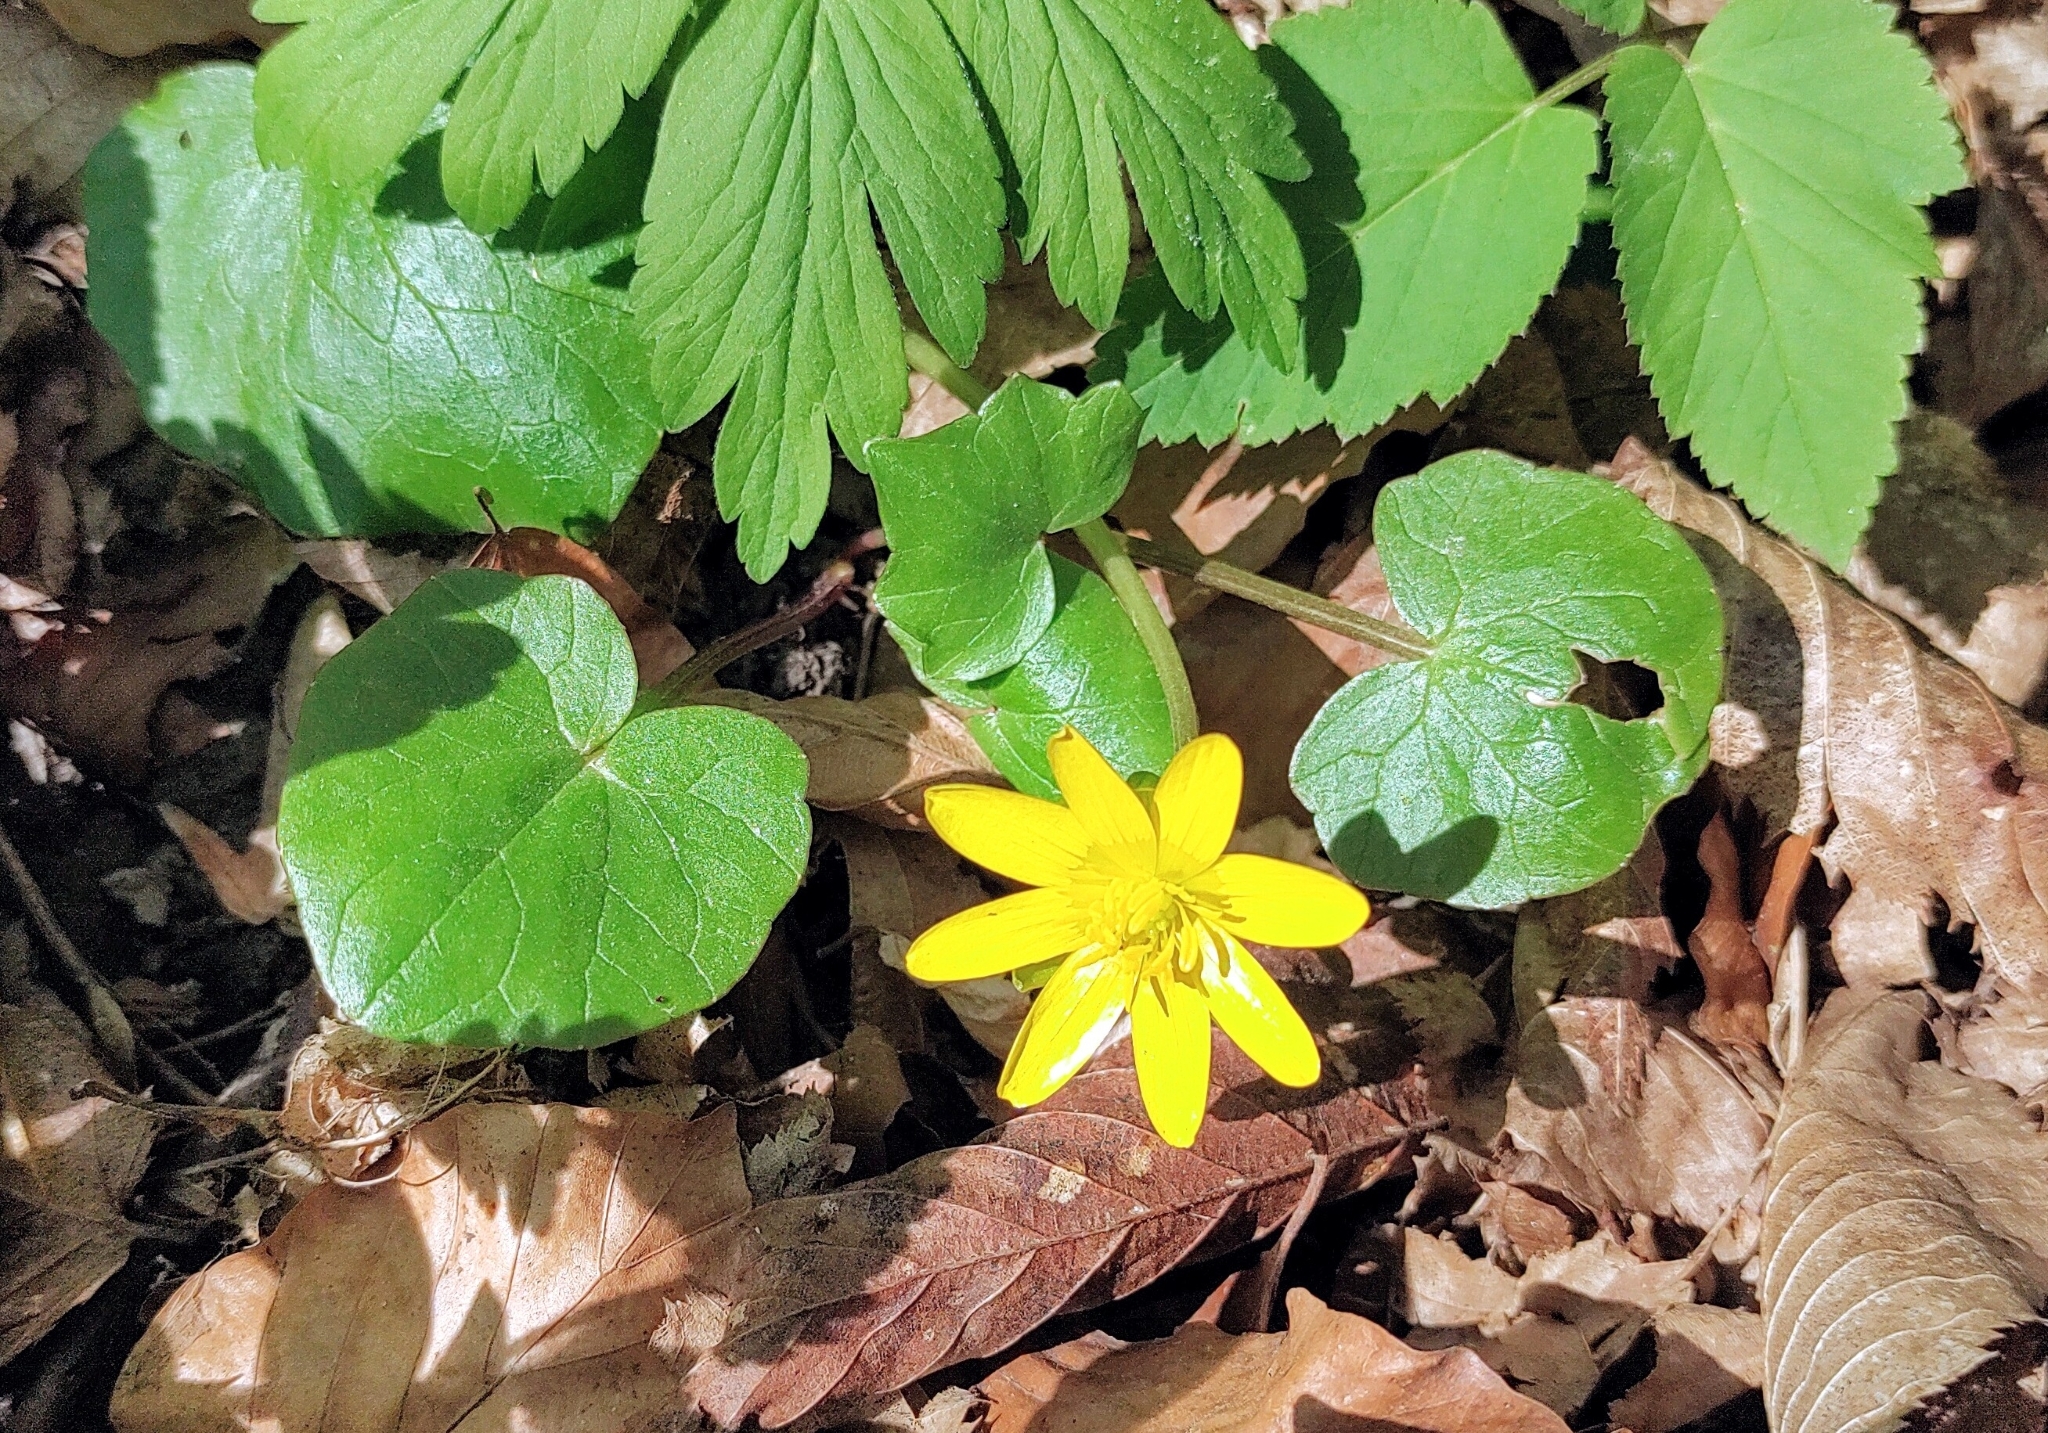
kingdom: Plantae
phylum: Tracheophyta
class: Magnoliopsida
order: Ranunculales
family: Ranunculaceae
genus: Ficaria
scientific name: Ficaria verna
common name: Lesser celandine
